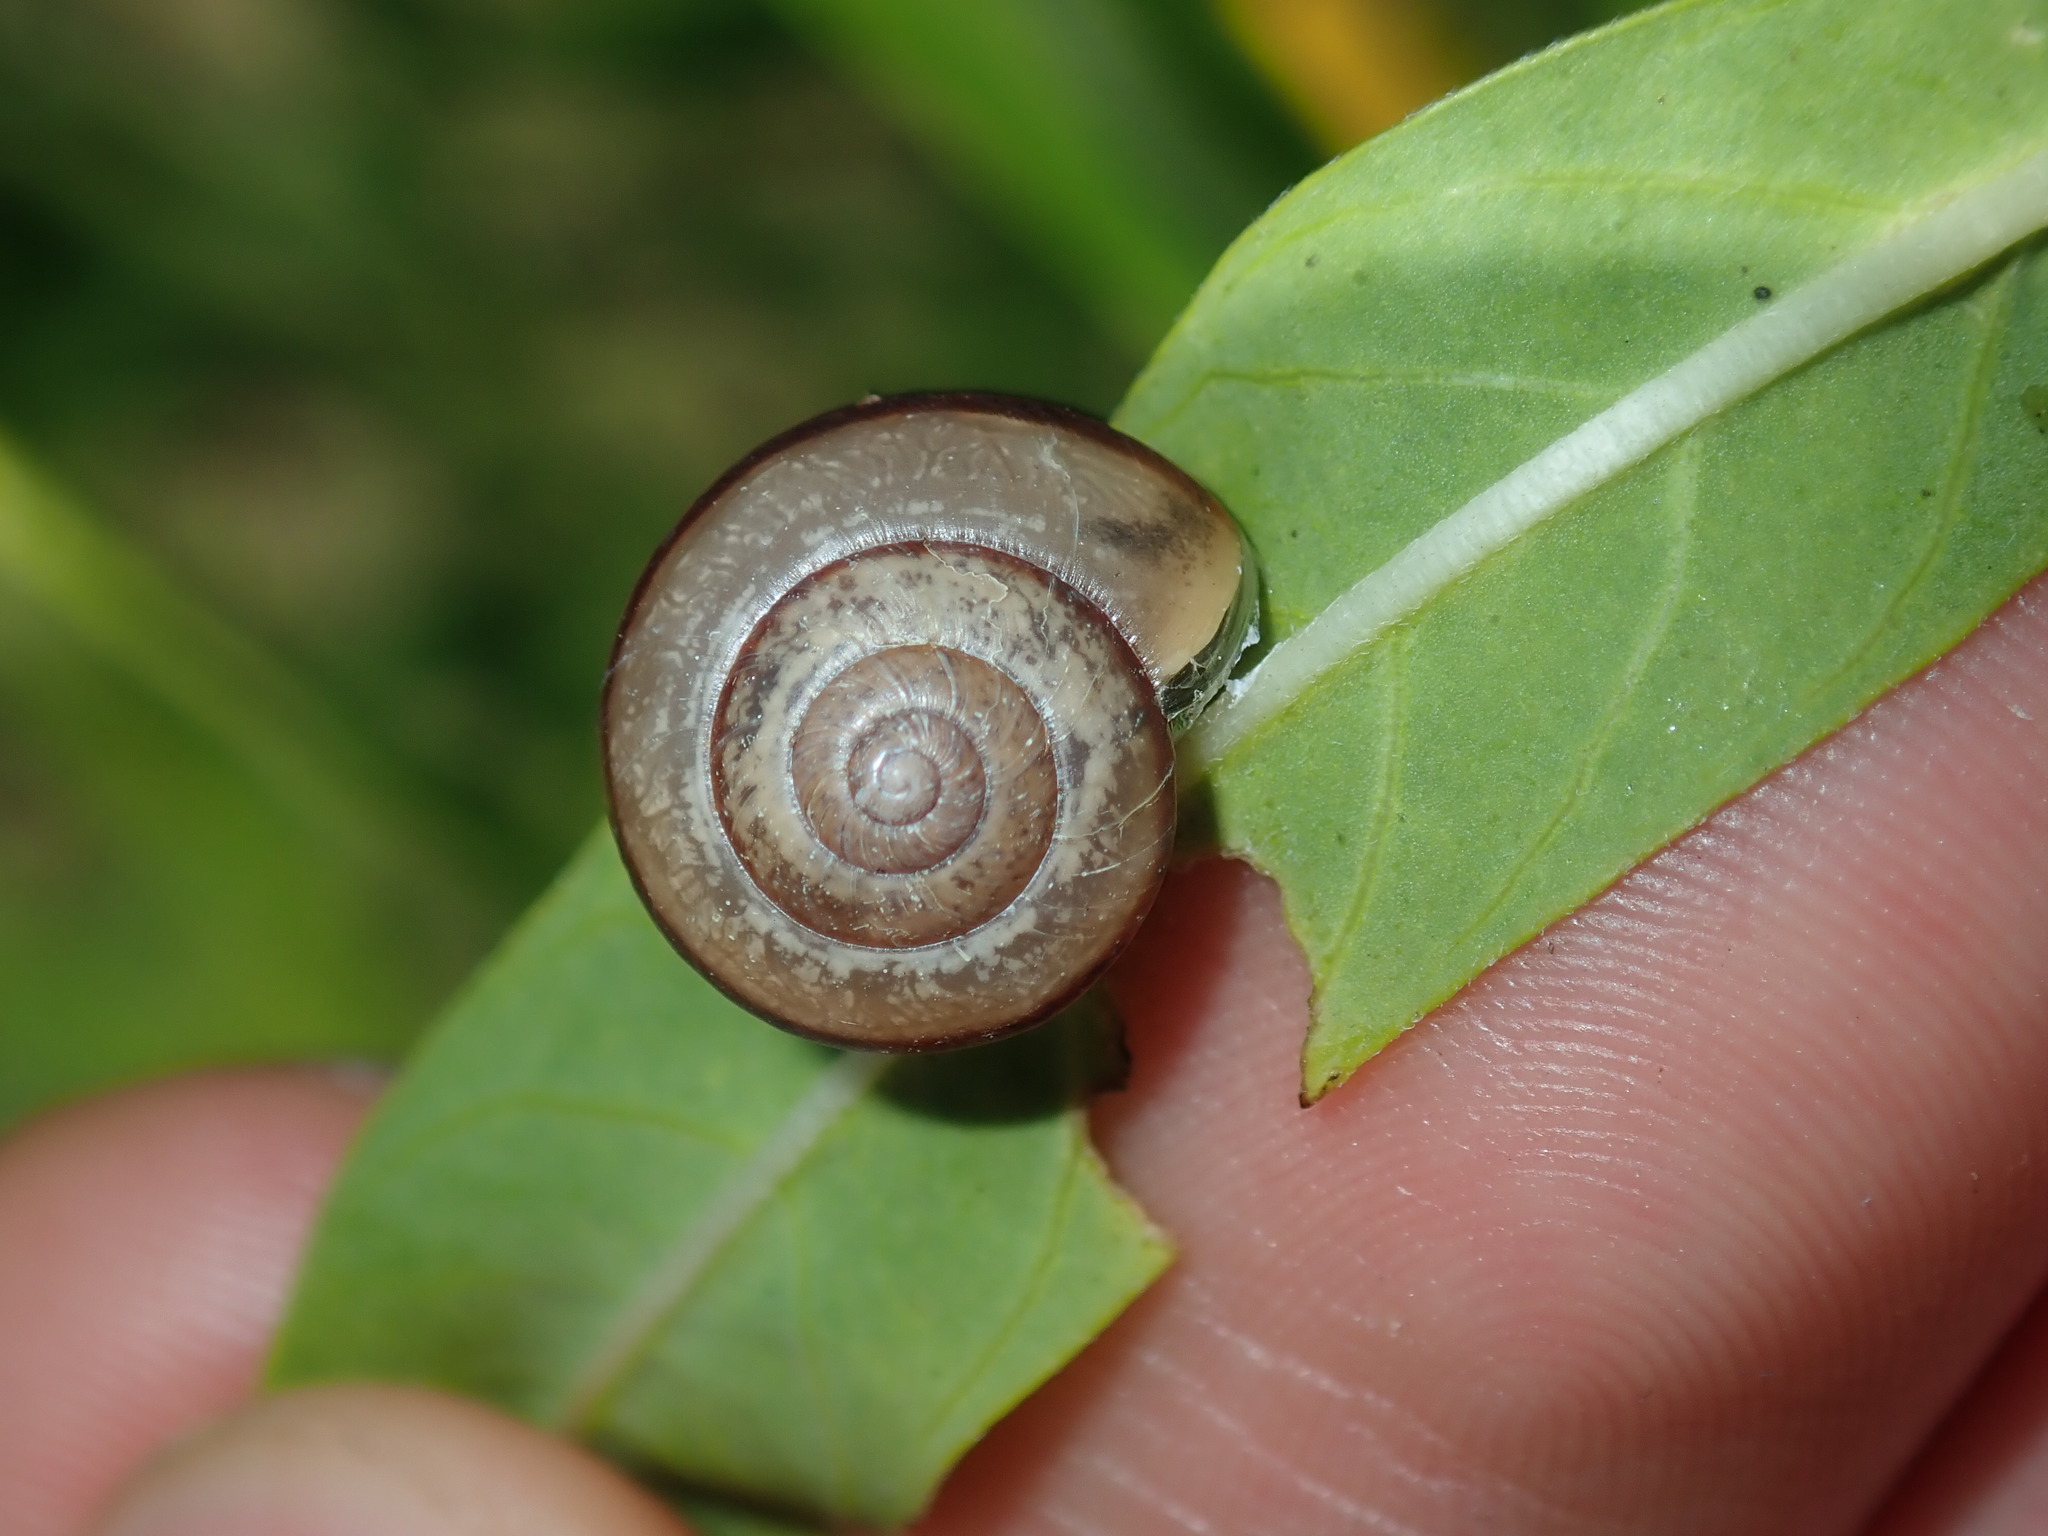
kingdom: Animalia
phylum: Mollusca
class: Gastropoda
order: Stylommatophora
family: Camaenidae
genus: Bradybaena
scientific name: Bradybaena similaris
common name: Asian trampsnail
